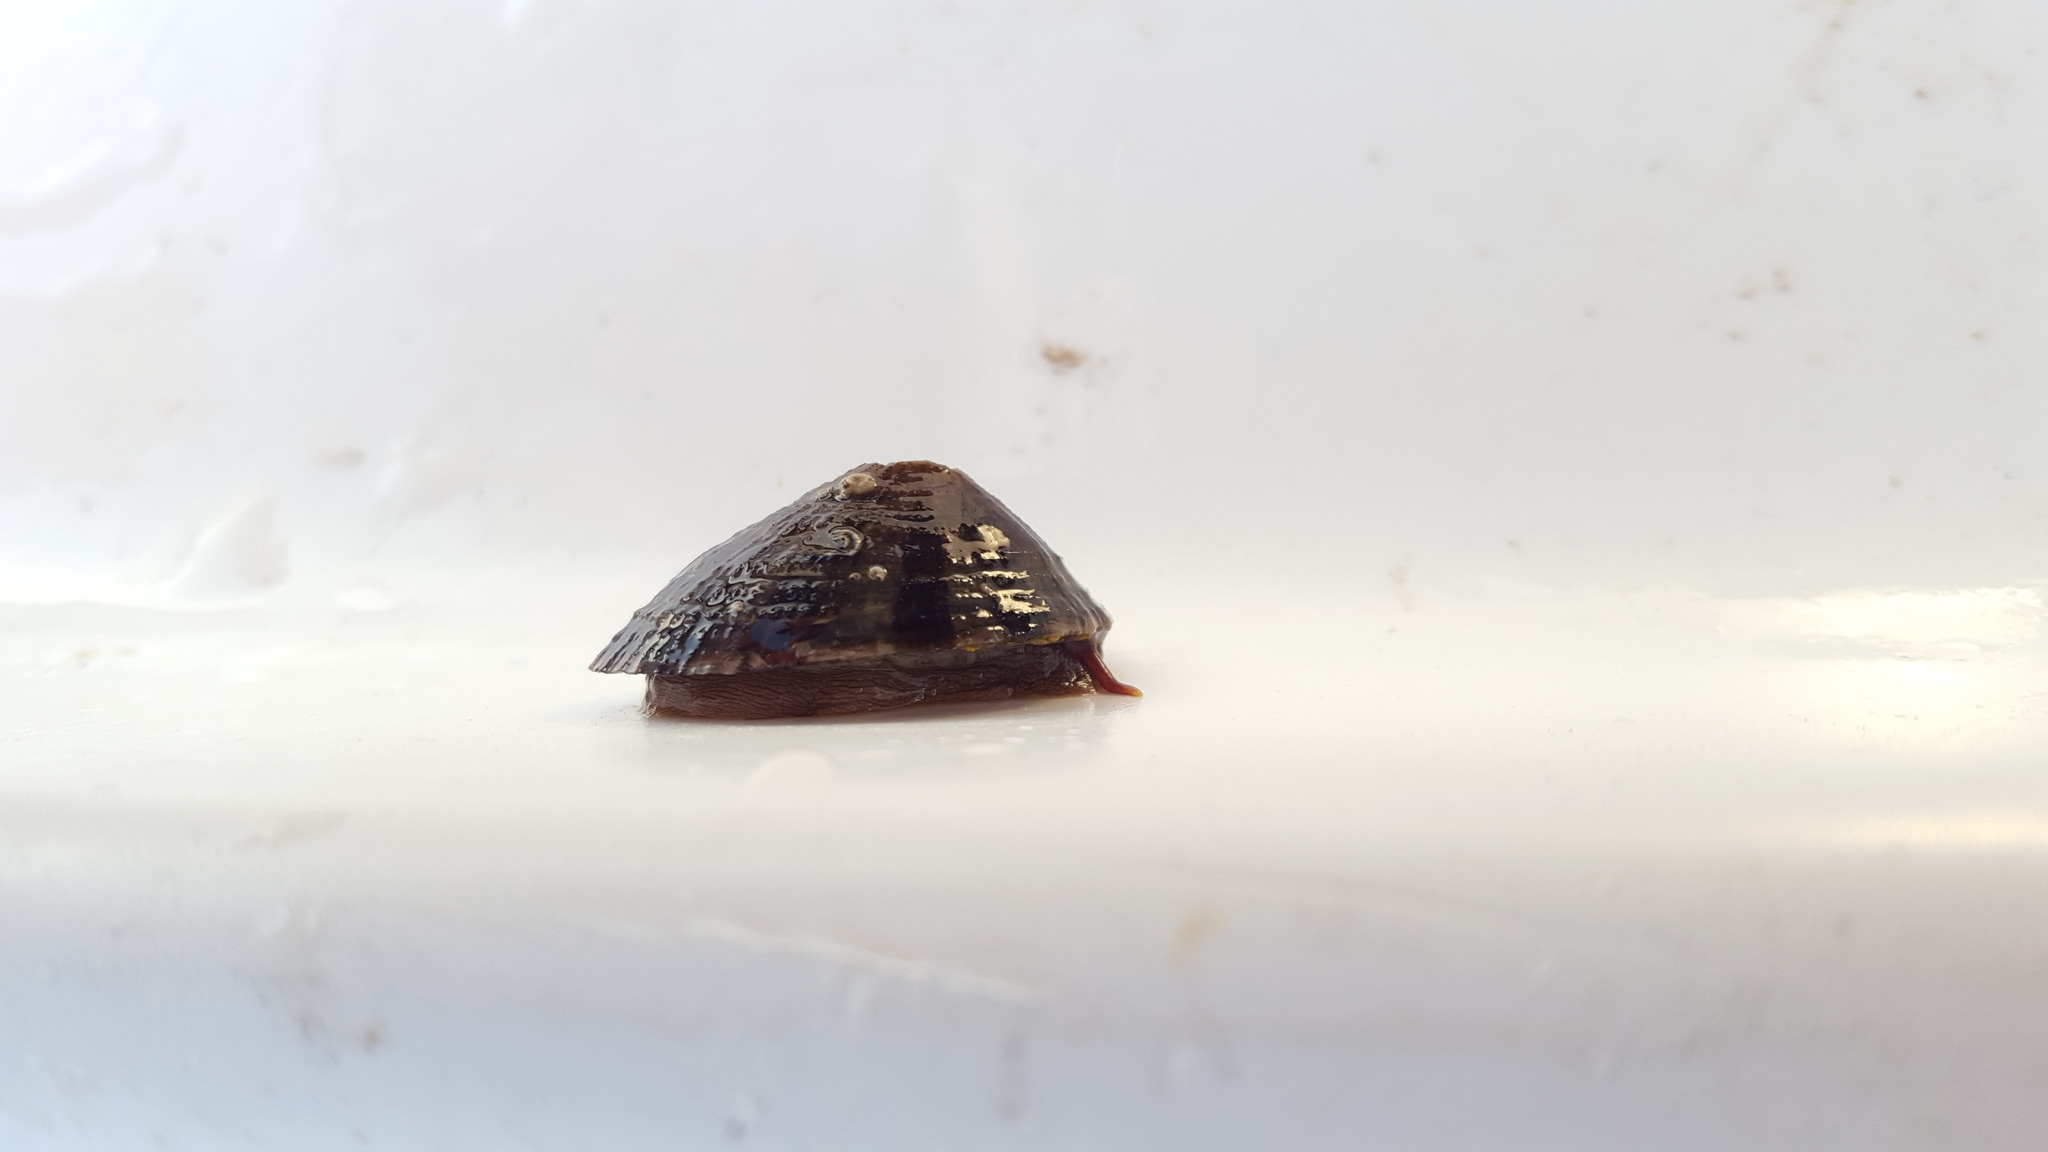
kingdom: Animalia
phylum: Mollusca
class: Gastropoda
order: Lepetellida
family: Fissurellidae
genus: Fissurella
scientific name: Fissurella volcano
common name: Volcano keyhole limpet
